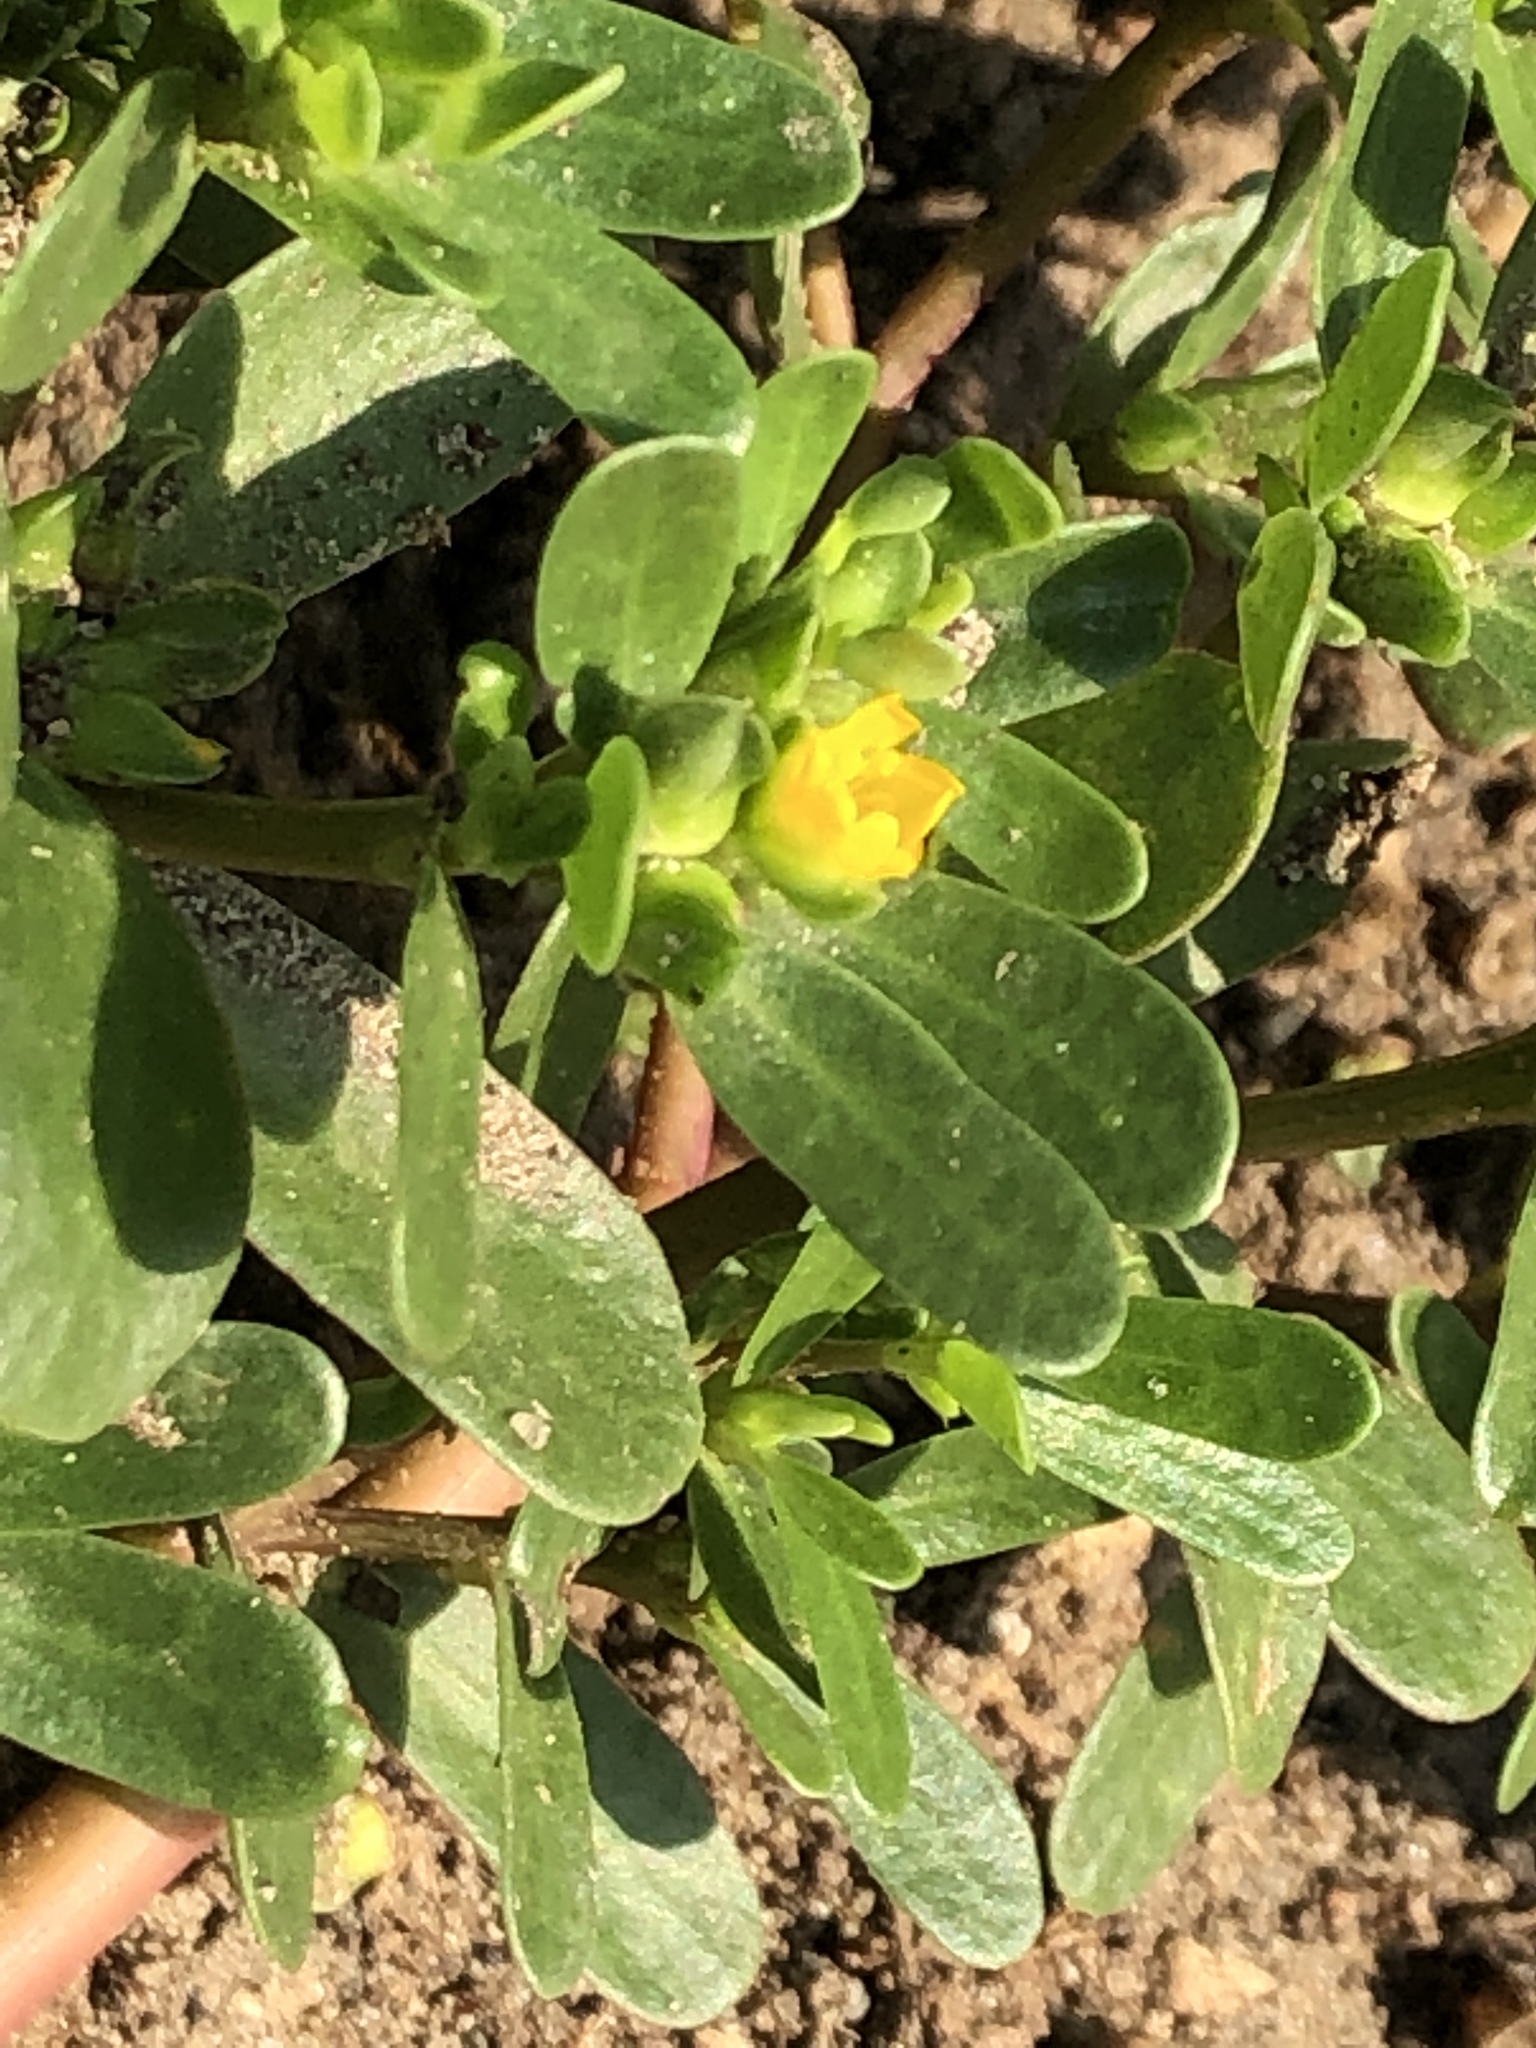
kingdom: Plantae
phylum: Tracheophyta
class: Magnoliopsida
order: Caryophyllales
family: Portulacaceae
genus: Portulaca
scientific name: Portulaca oleracea
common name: Common purslane
